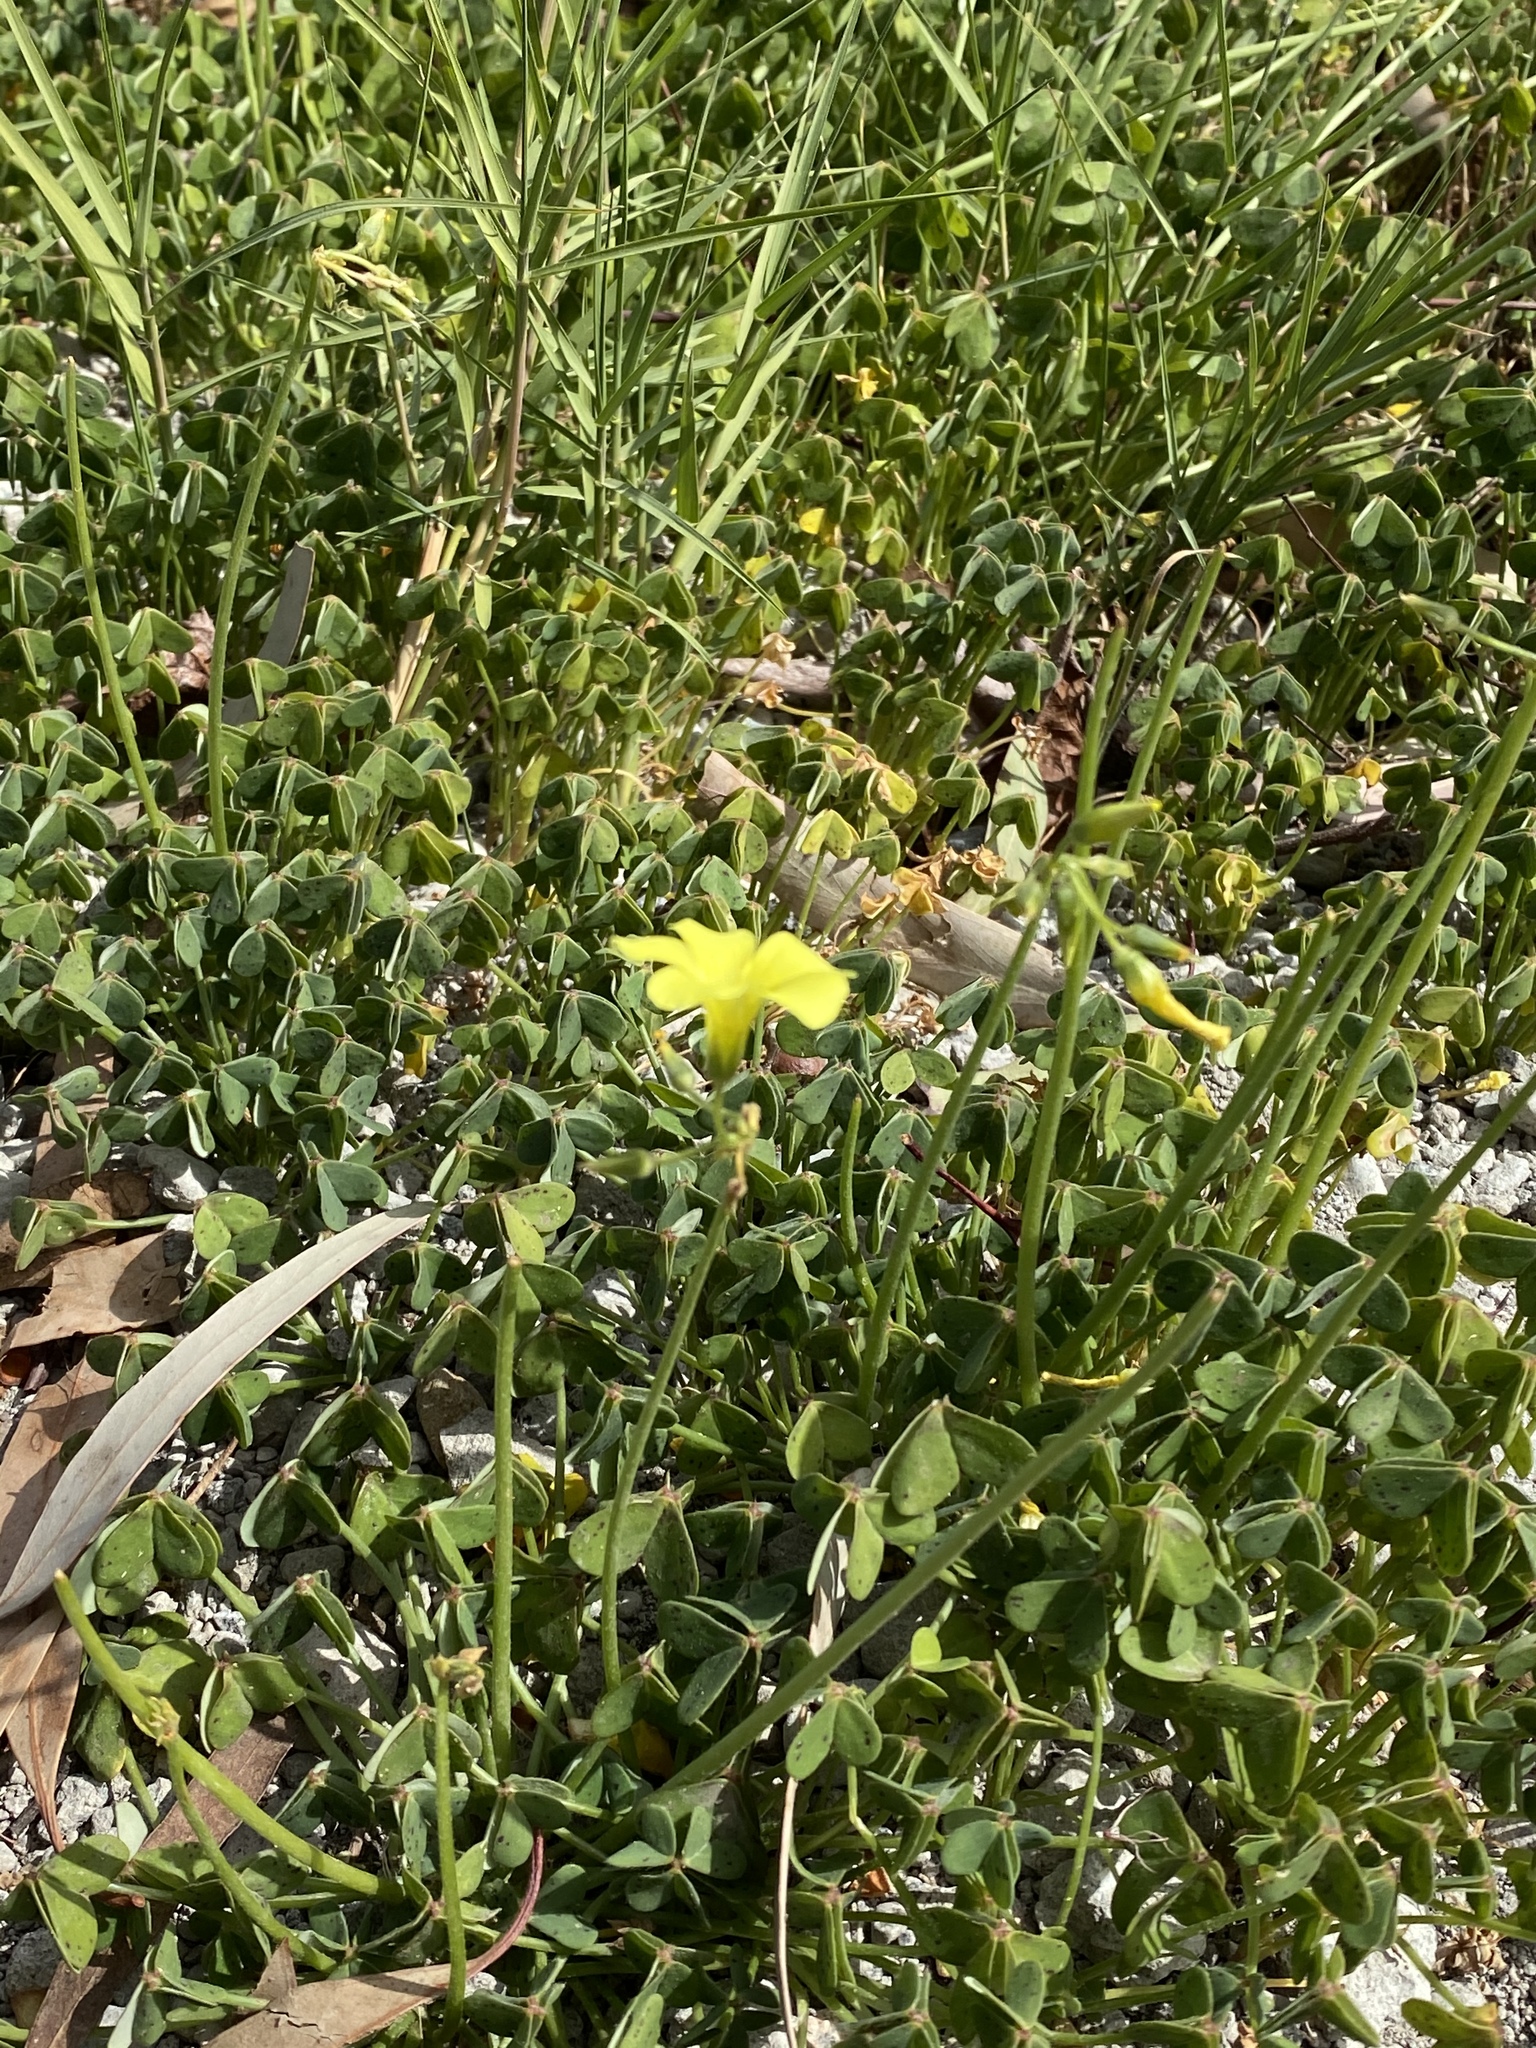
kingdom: Plantae
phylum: Tracheophyta
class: Magnoliopsida
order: Oxalidales
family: Oxalidaceae
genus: Oxalis
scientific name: Oxalis pes-caprae
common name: Bermuda-buttercup
